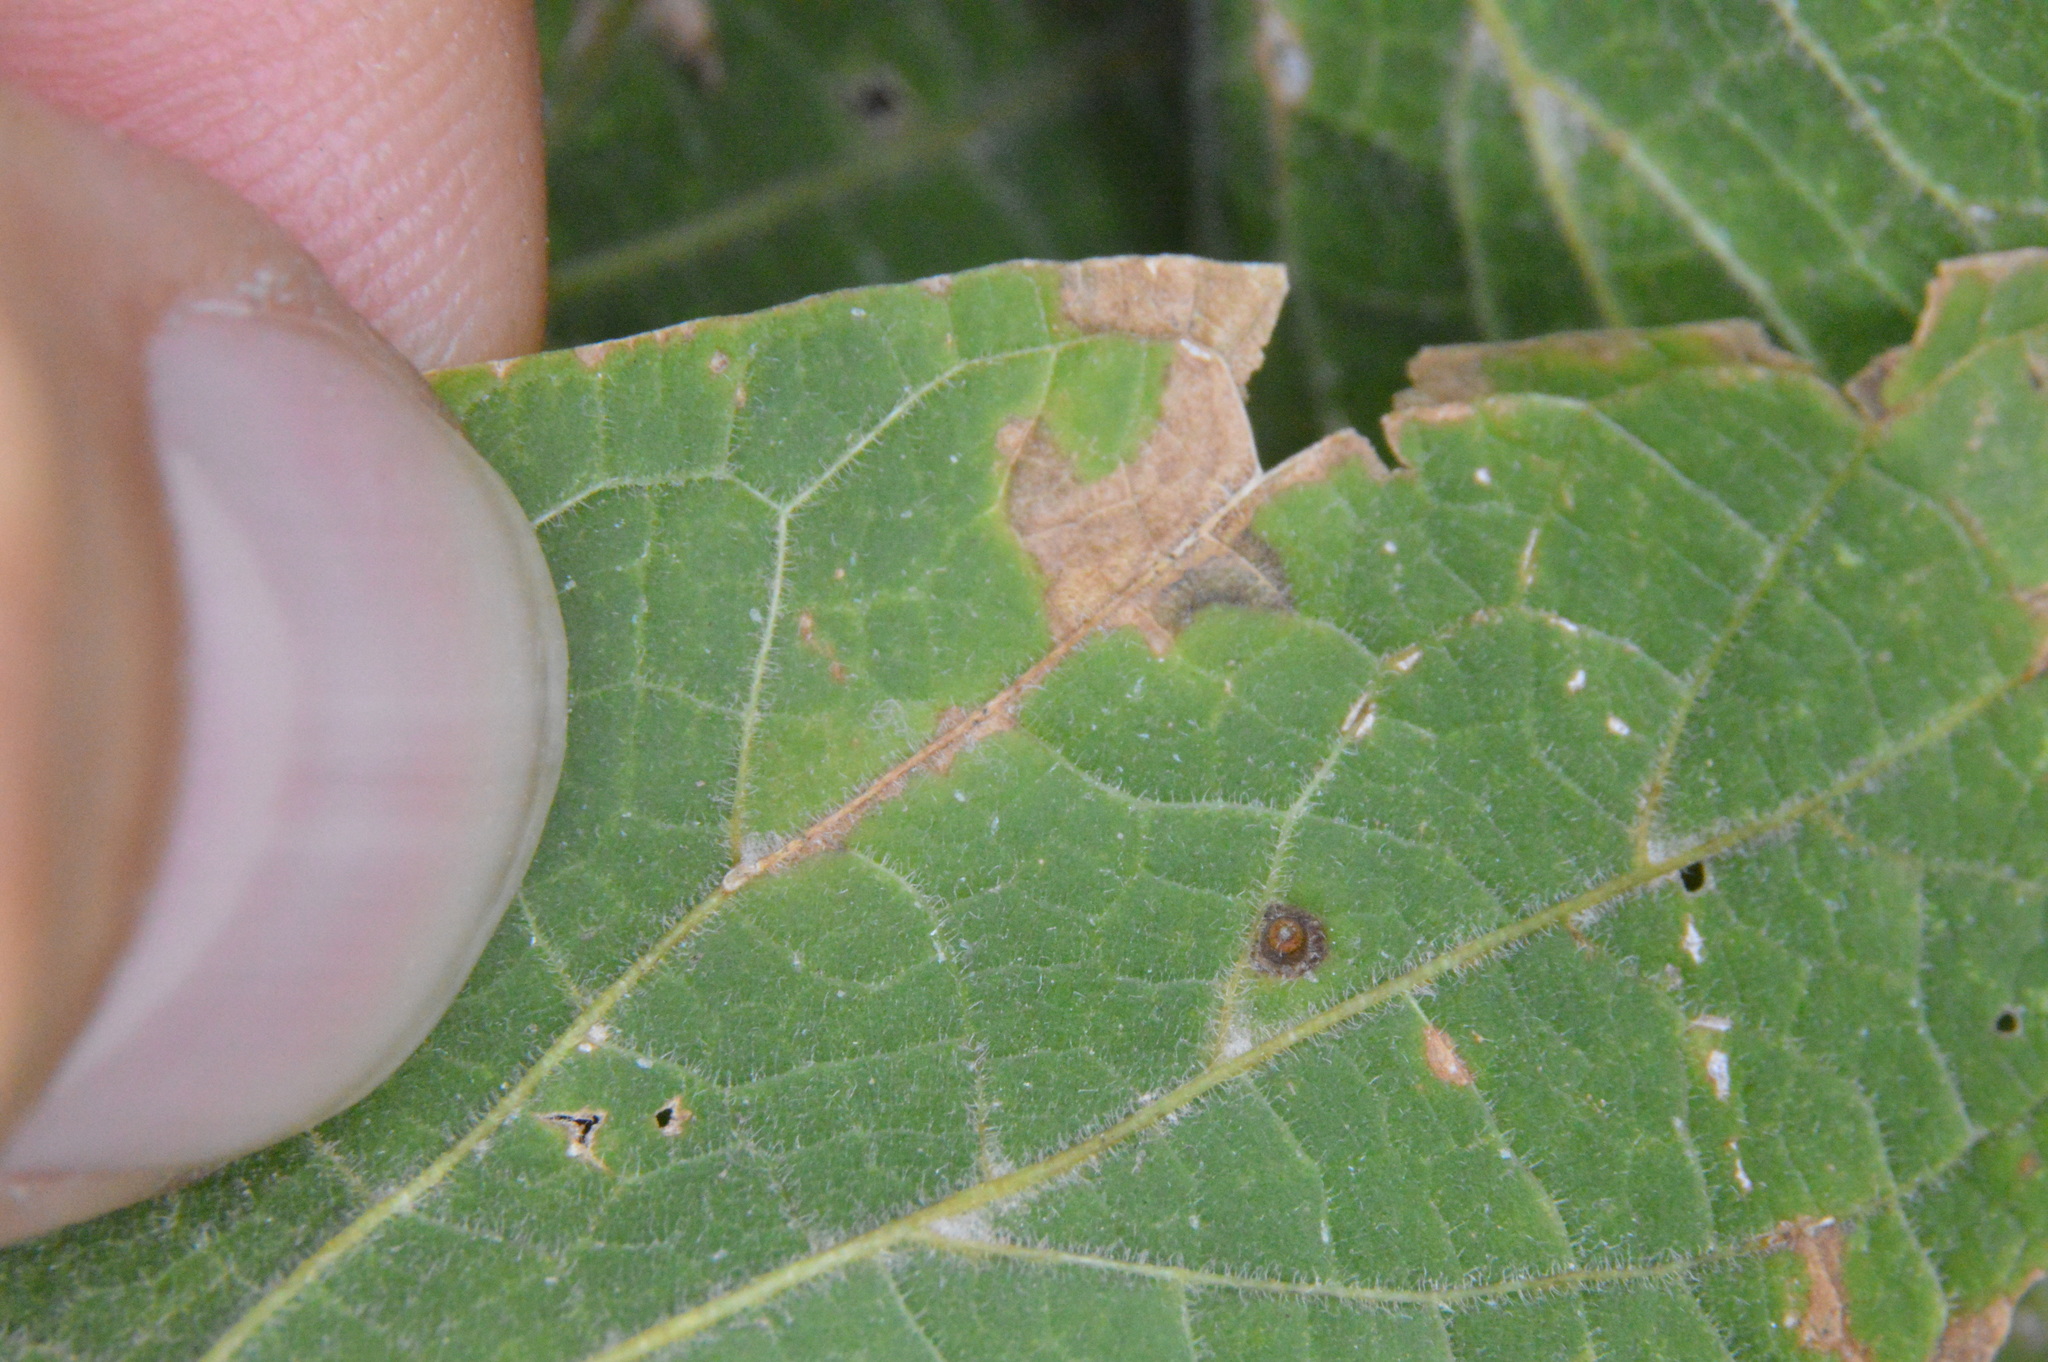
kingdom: Animalia
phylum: Arthropoda
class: Insecta
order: Diptera
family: Cecidomyiidae
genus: Celticecis
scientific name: Celticecis cupiformis
